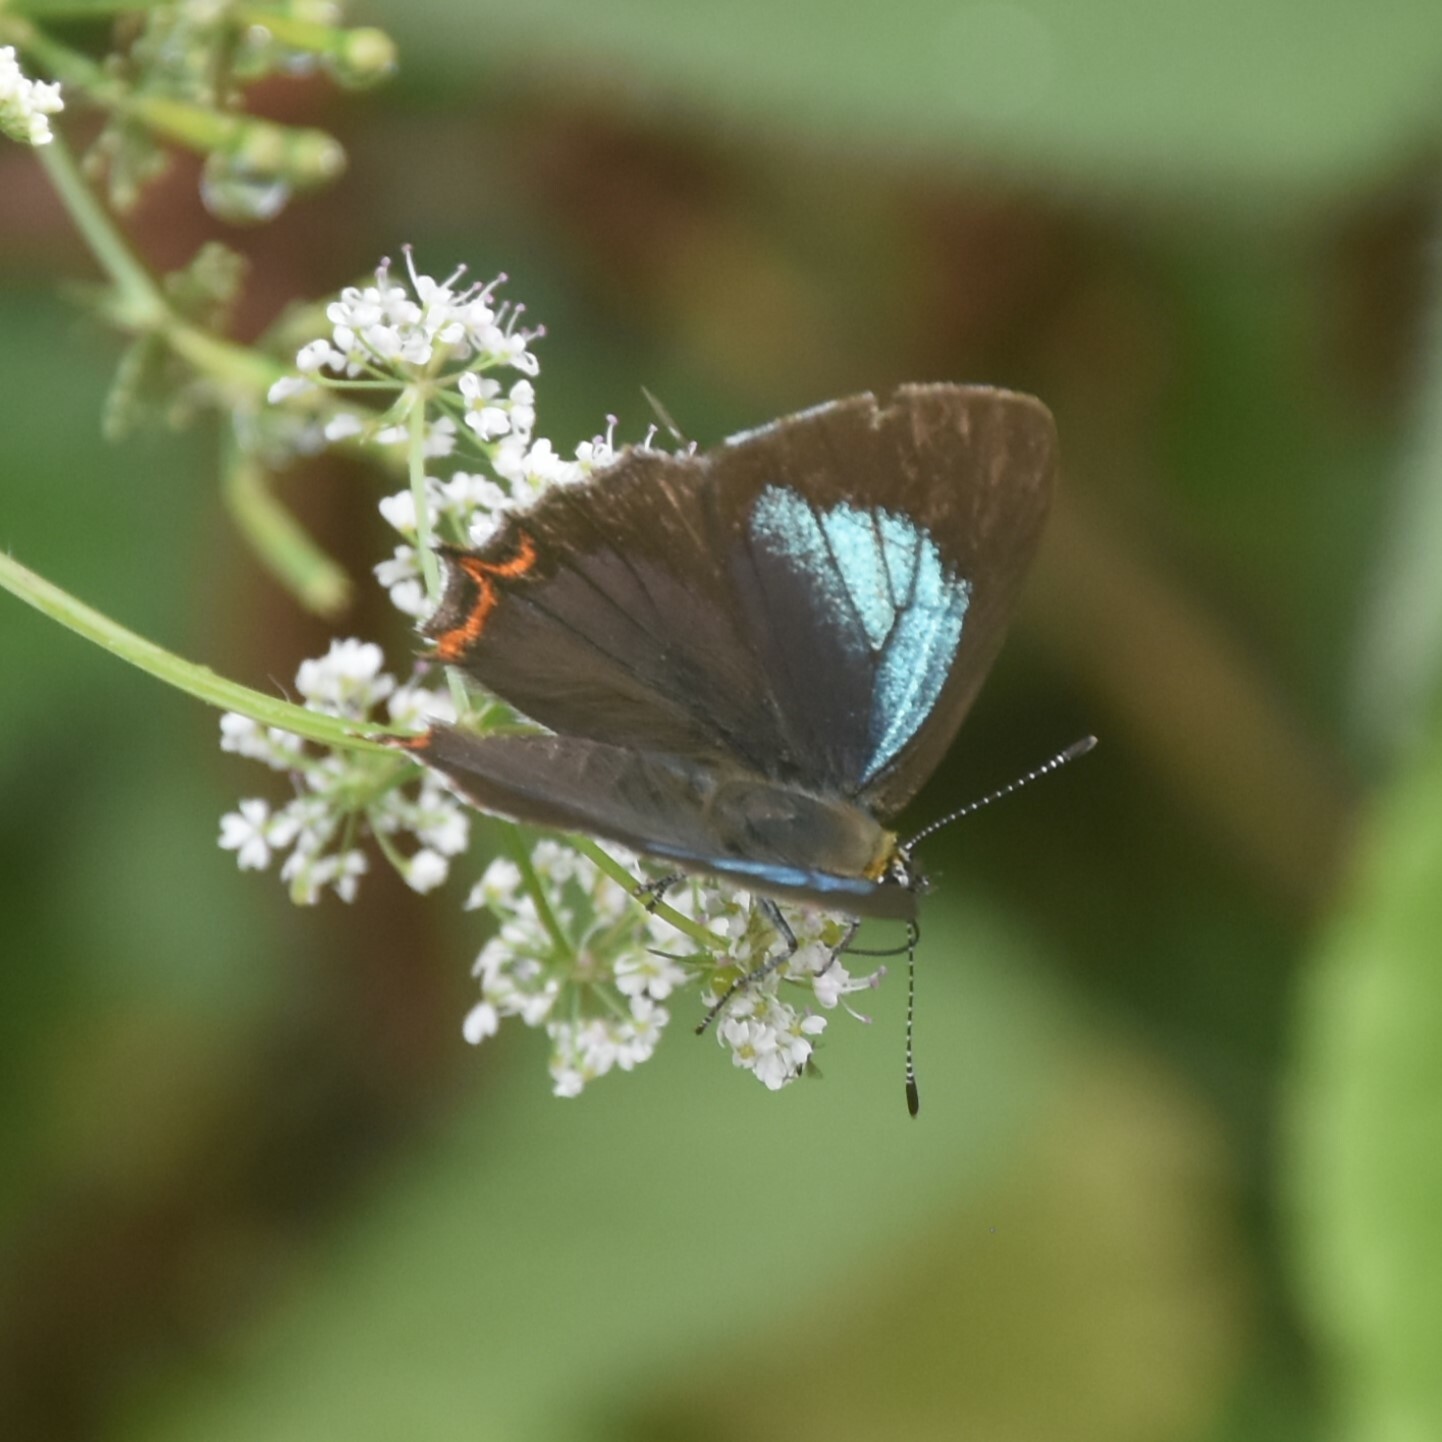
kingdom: Animalia
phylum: Arthropoda
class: Insecta
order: Lepidoptera
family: Lycaenidae
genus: Heliophorus
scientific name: Heliophorus
